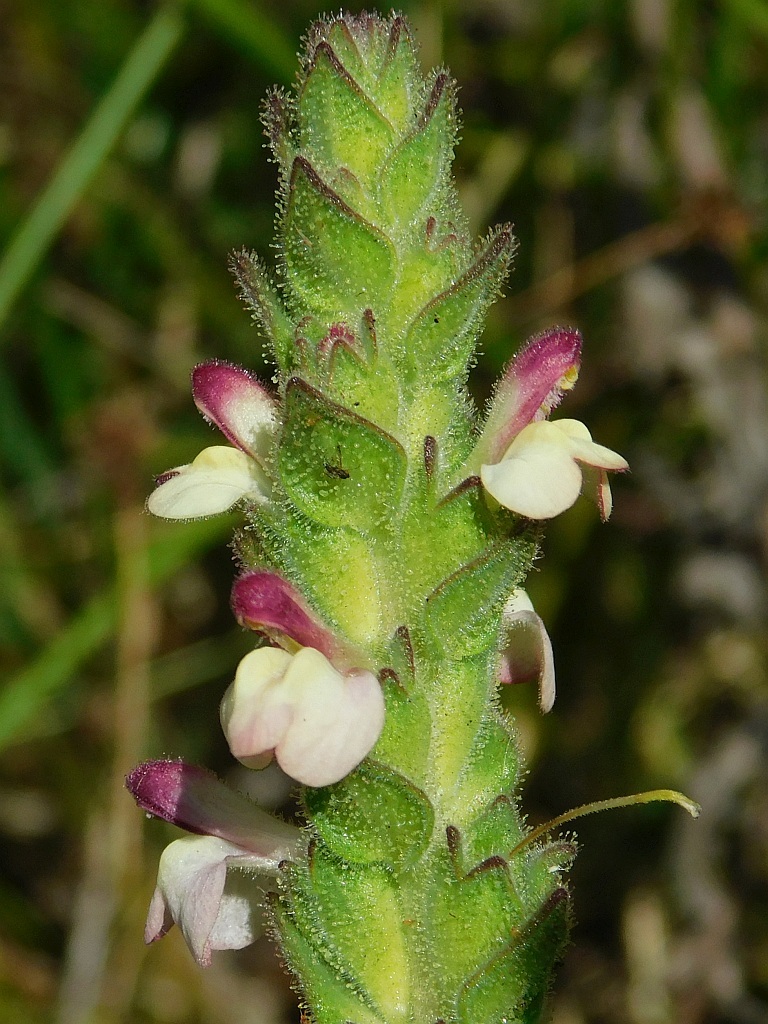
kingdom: Plantae
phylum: Tracheophyta
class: Magnoliopsida
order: Lamiales
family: Orobanchaceae
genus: Bellardia
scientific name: Bellardia trixago
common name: Mediterranean lineseed
